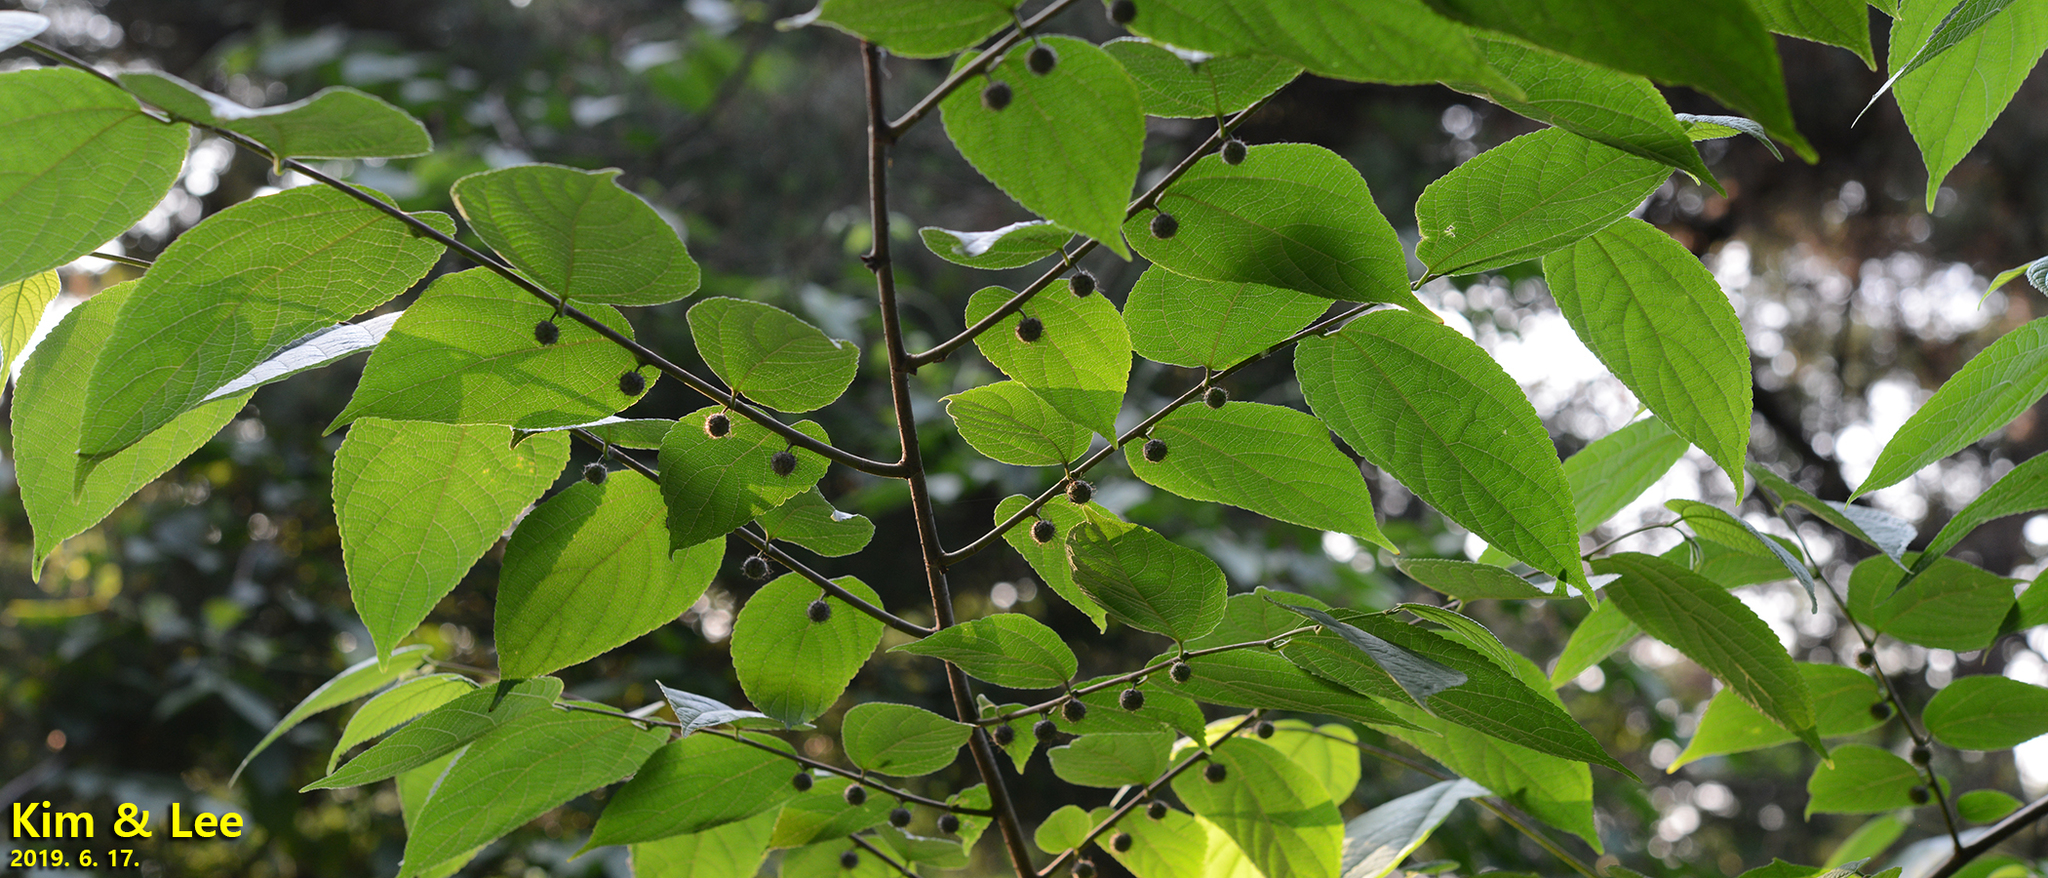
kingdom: Plantae
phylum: Tracheophyta
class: Magnoliopsida
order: Rosales
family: Moraceae
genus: Broussonetia
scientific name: Broussonetia papyrifera
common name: Paper mulberry
